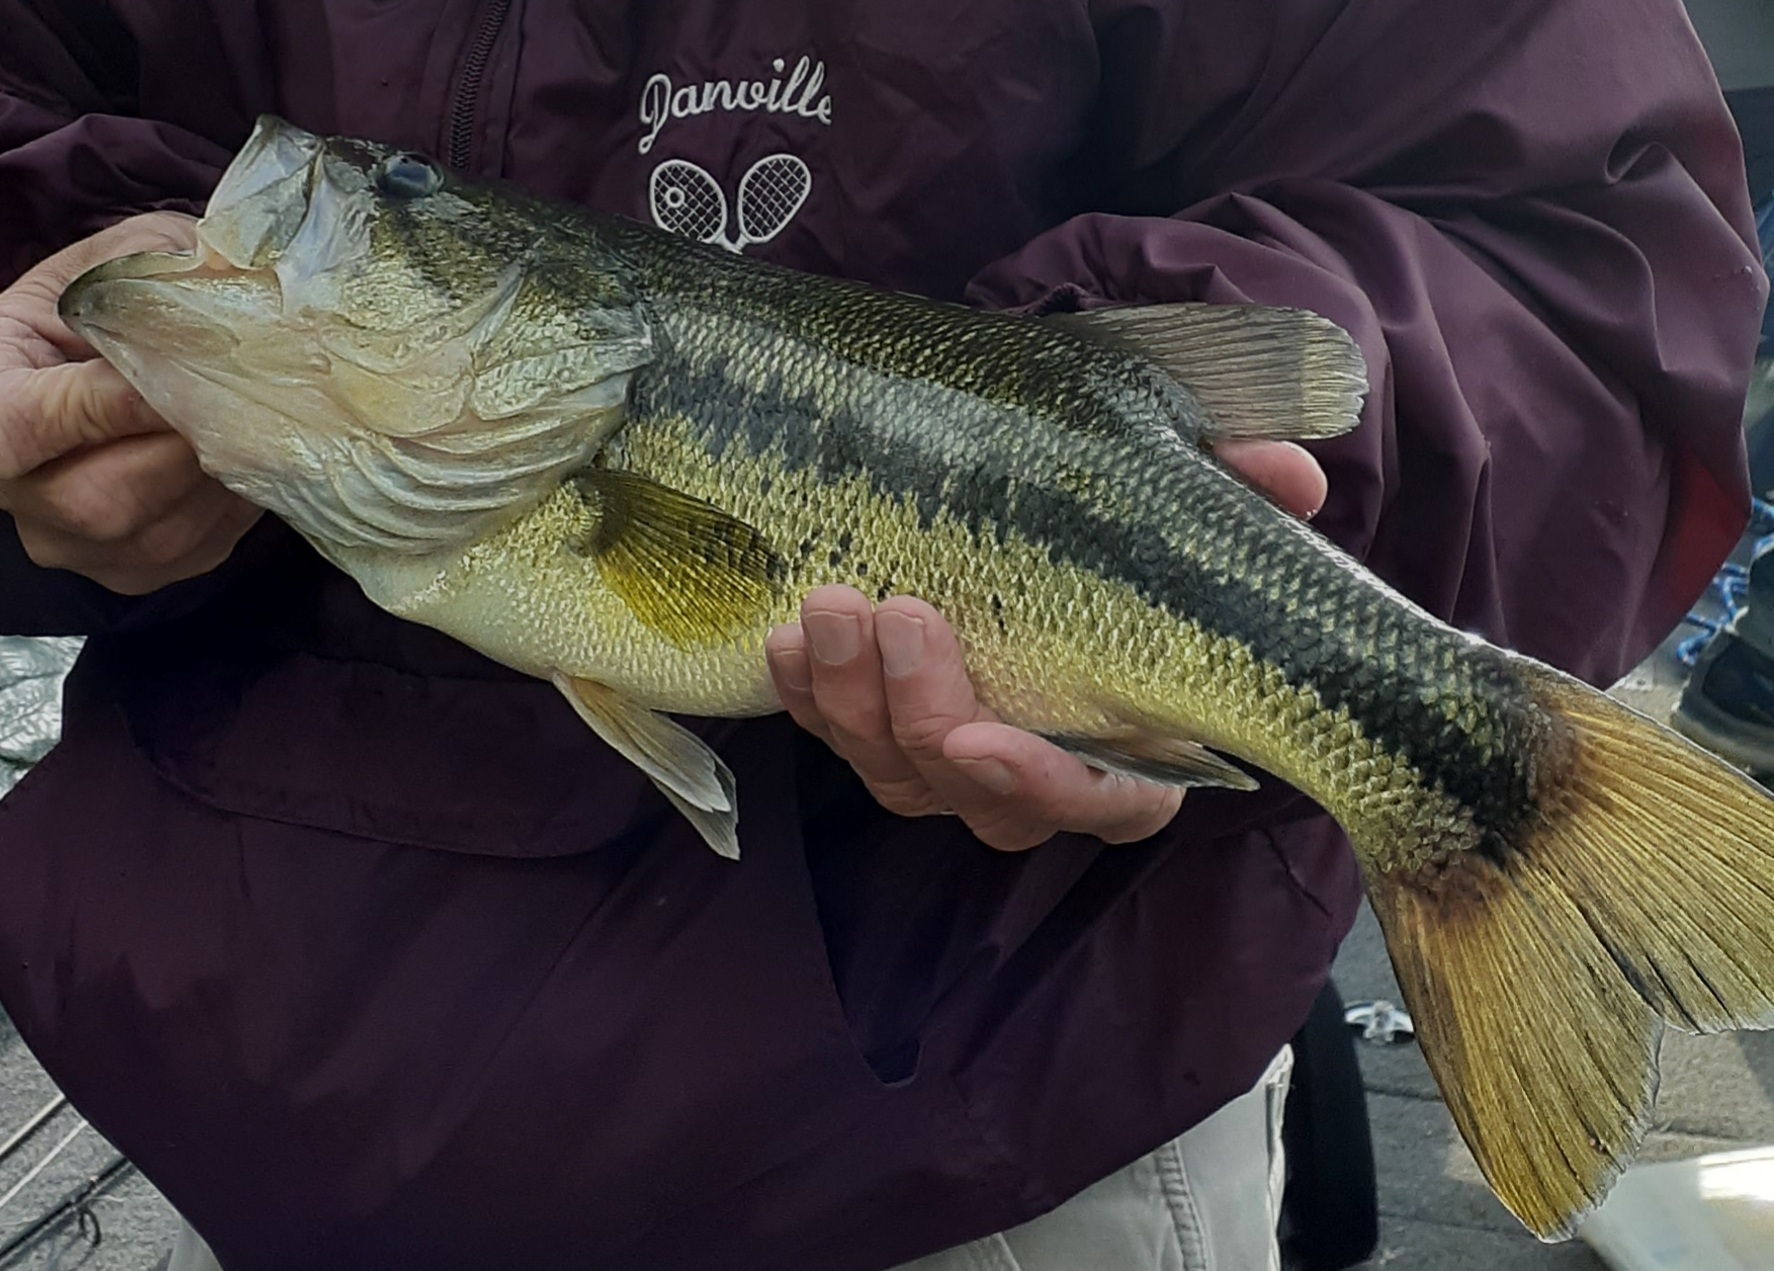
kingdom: Animalia
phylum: Chordata
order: Perciformes
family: Centrarchidae
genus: Micropterus
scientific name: Micropterus
